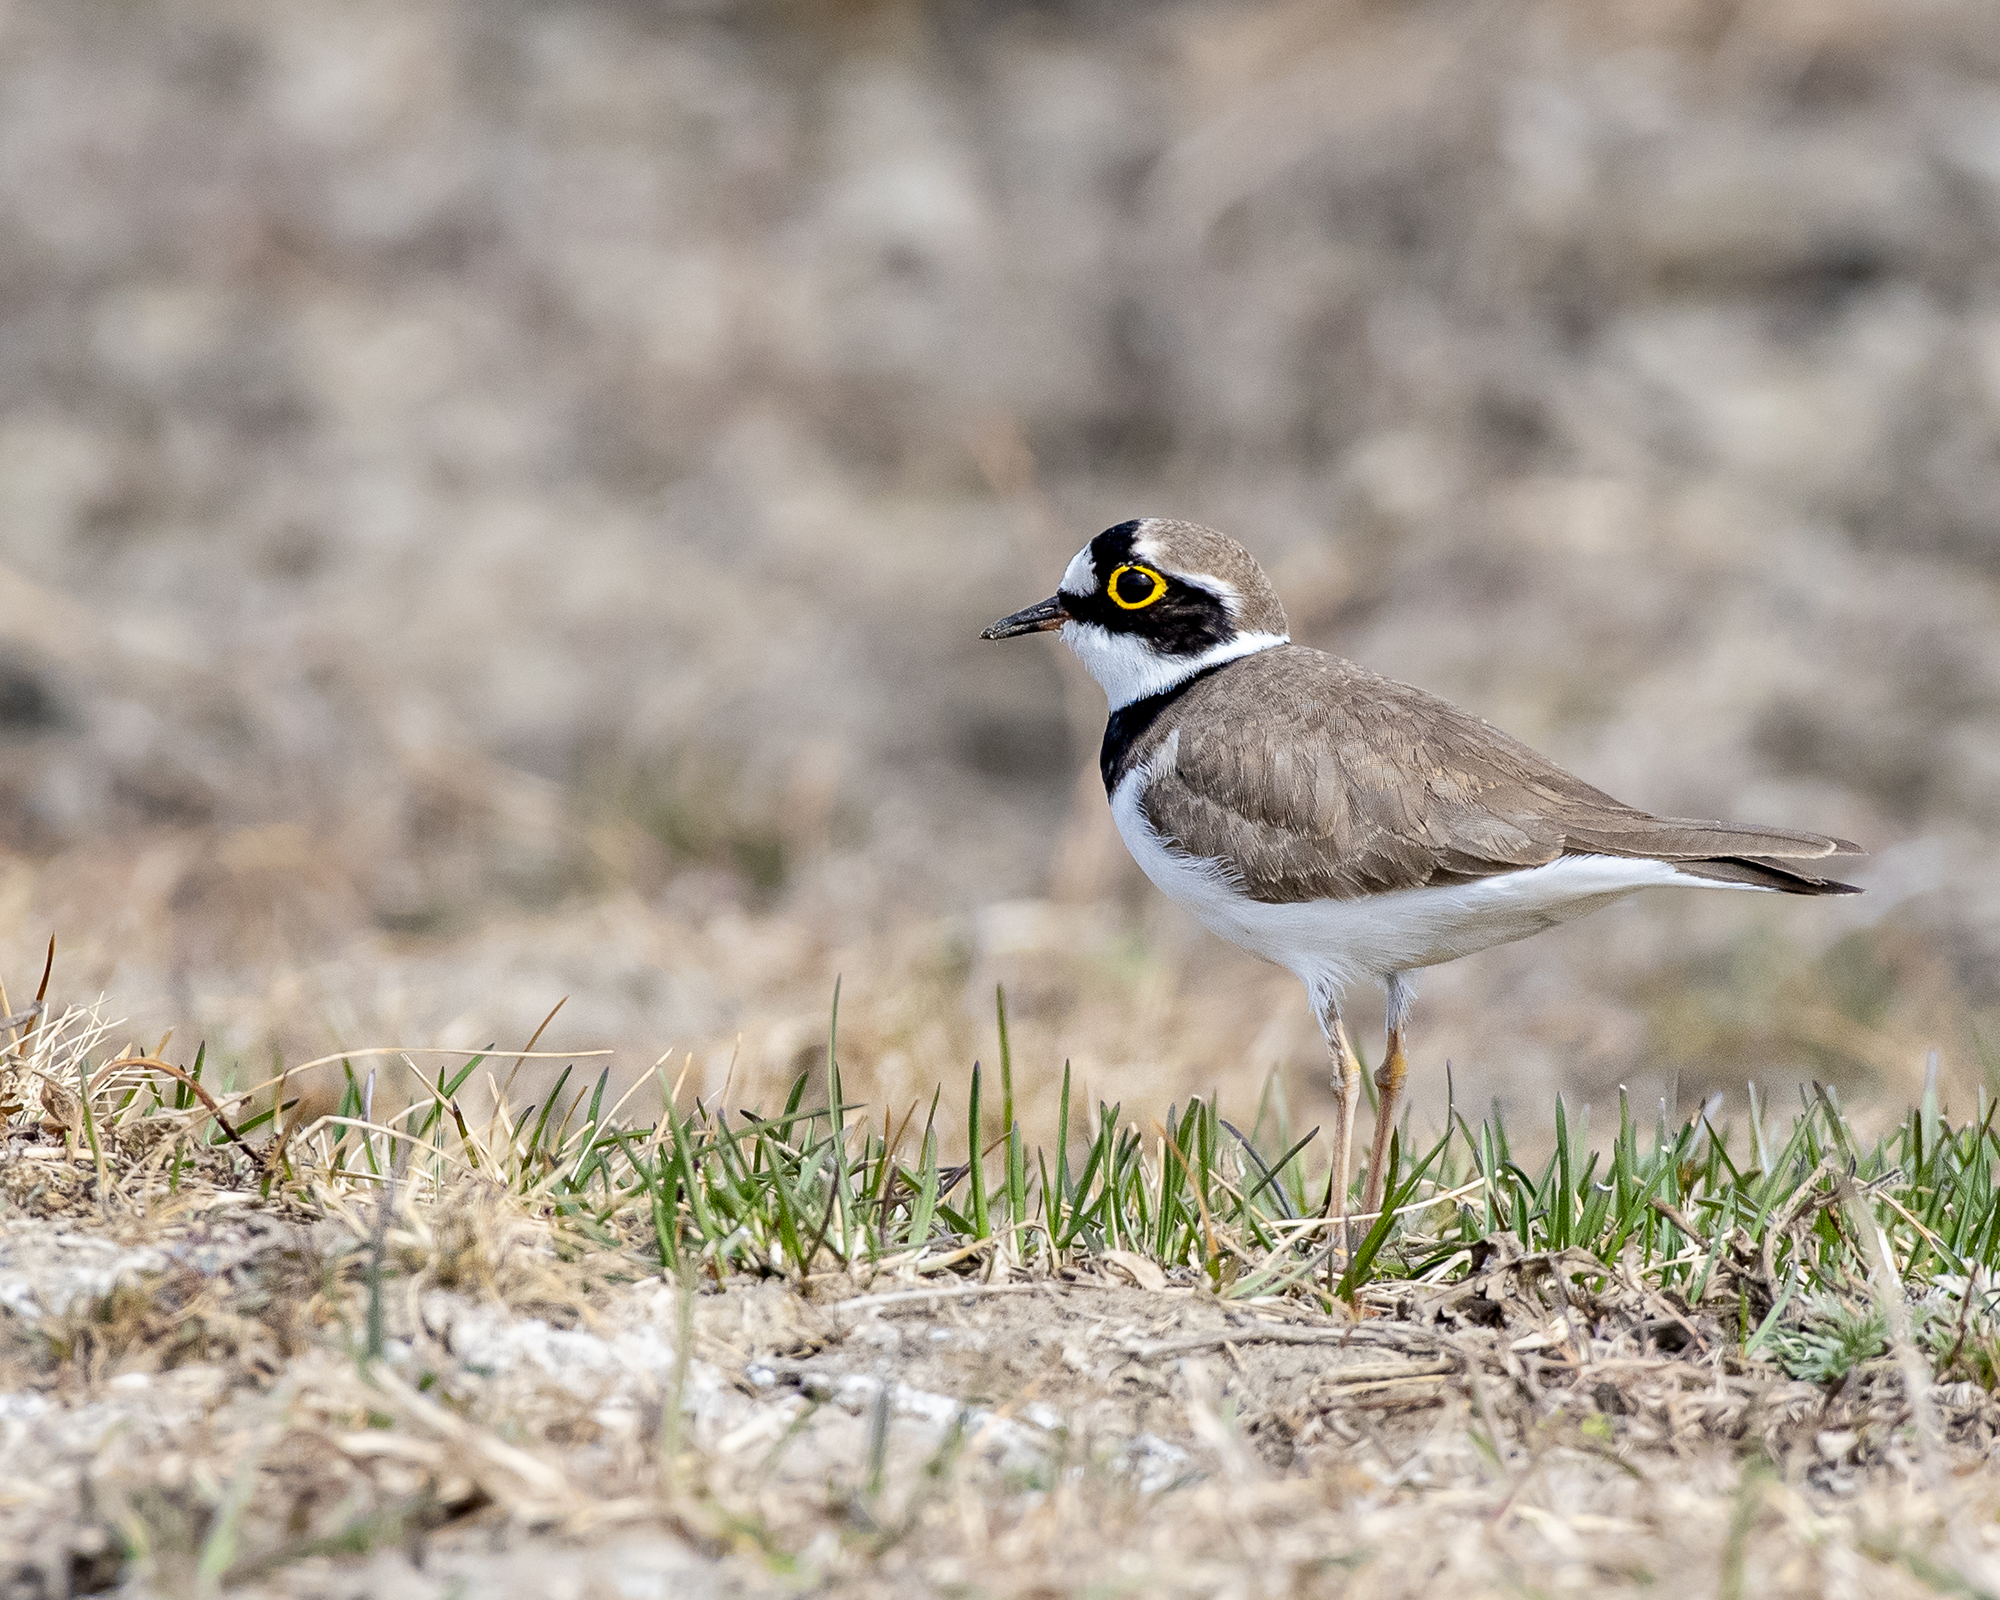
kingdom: Animalia
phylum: Chordata
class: Aves
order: Charadriiformes
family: Charadriidae
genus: Charadrius
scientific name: Charadrius dubius
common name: Little ringed plover
